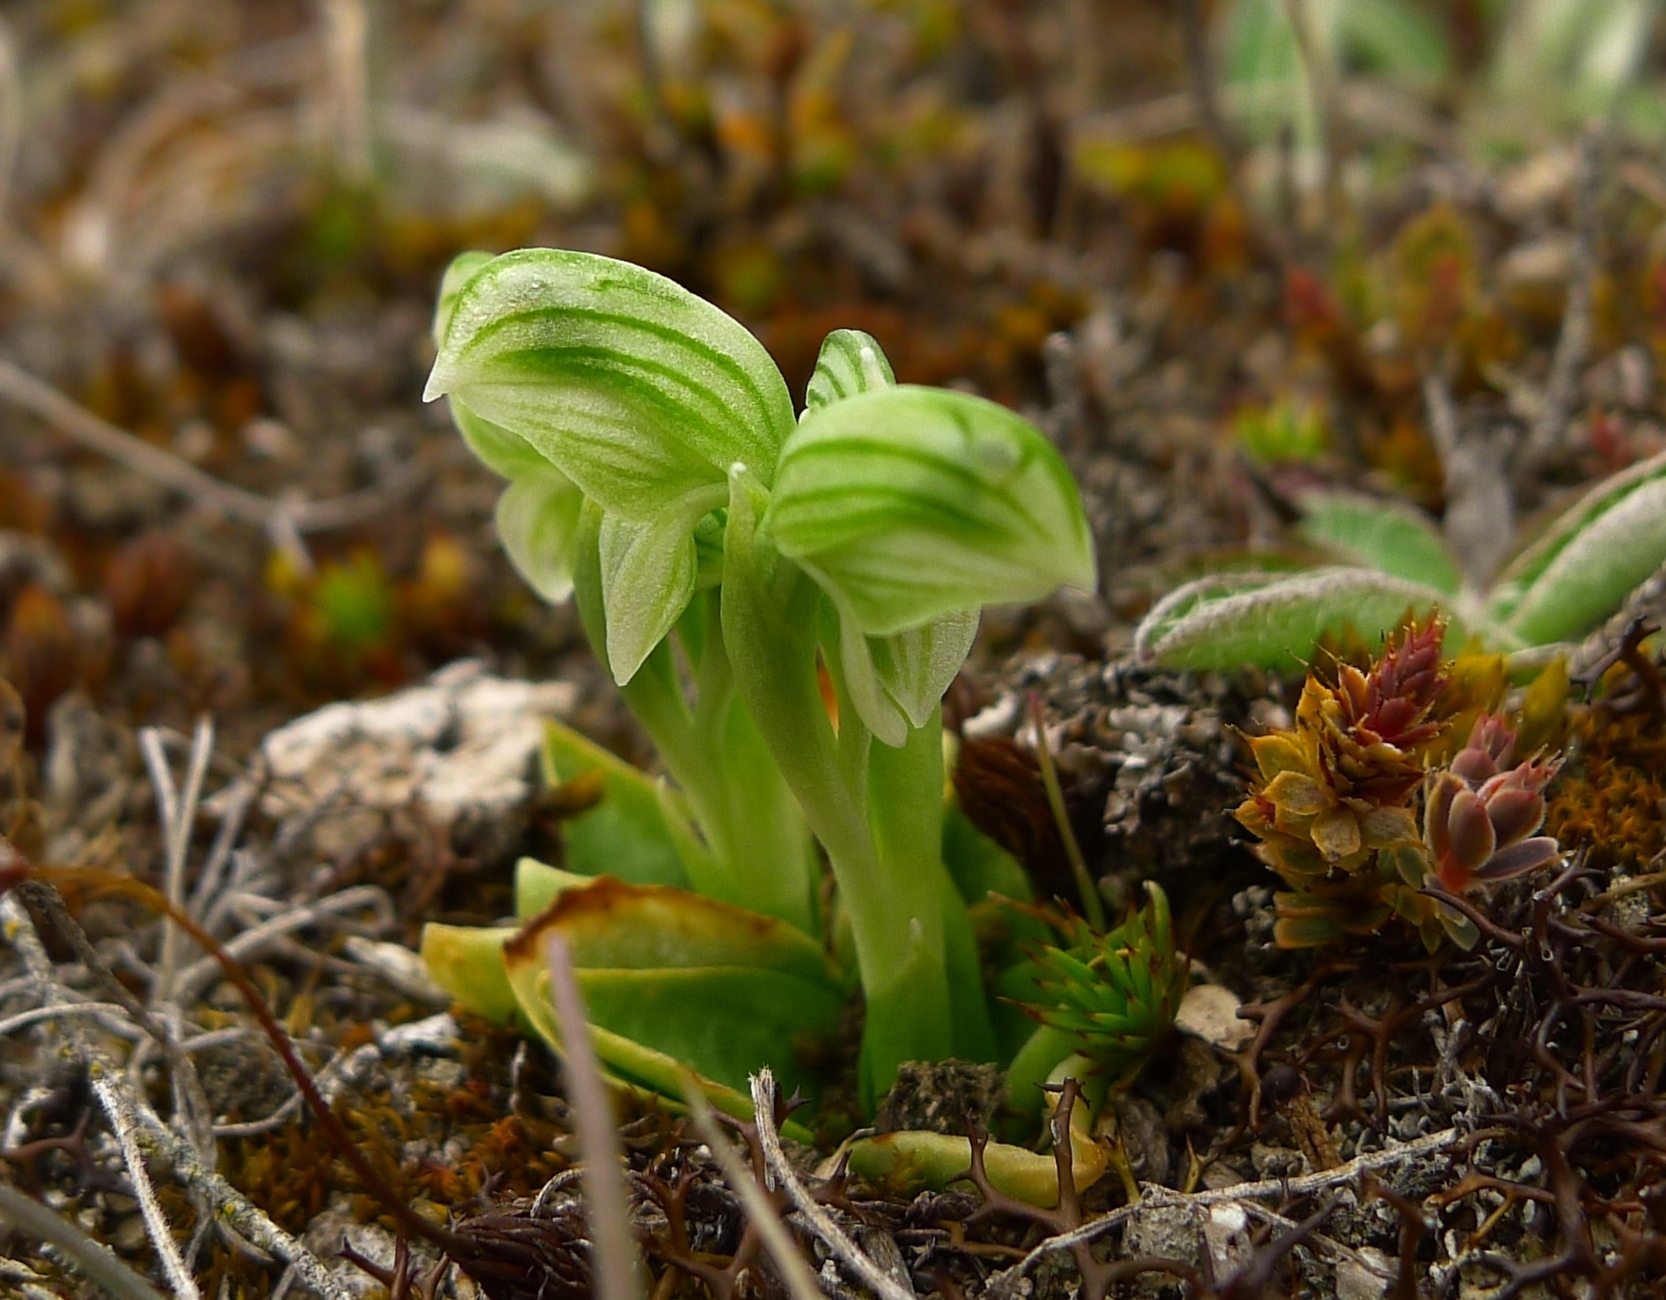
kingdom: Plantae
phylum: Tracheophyta
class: Liliopsida
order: Asparagales
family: Orchidaceae
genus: Pterostylis
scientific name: Pterostylis tanypoda
